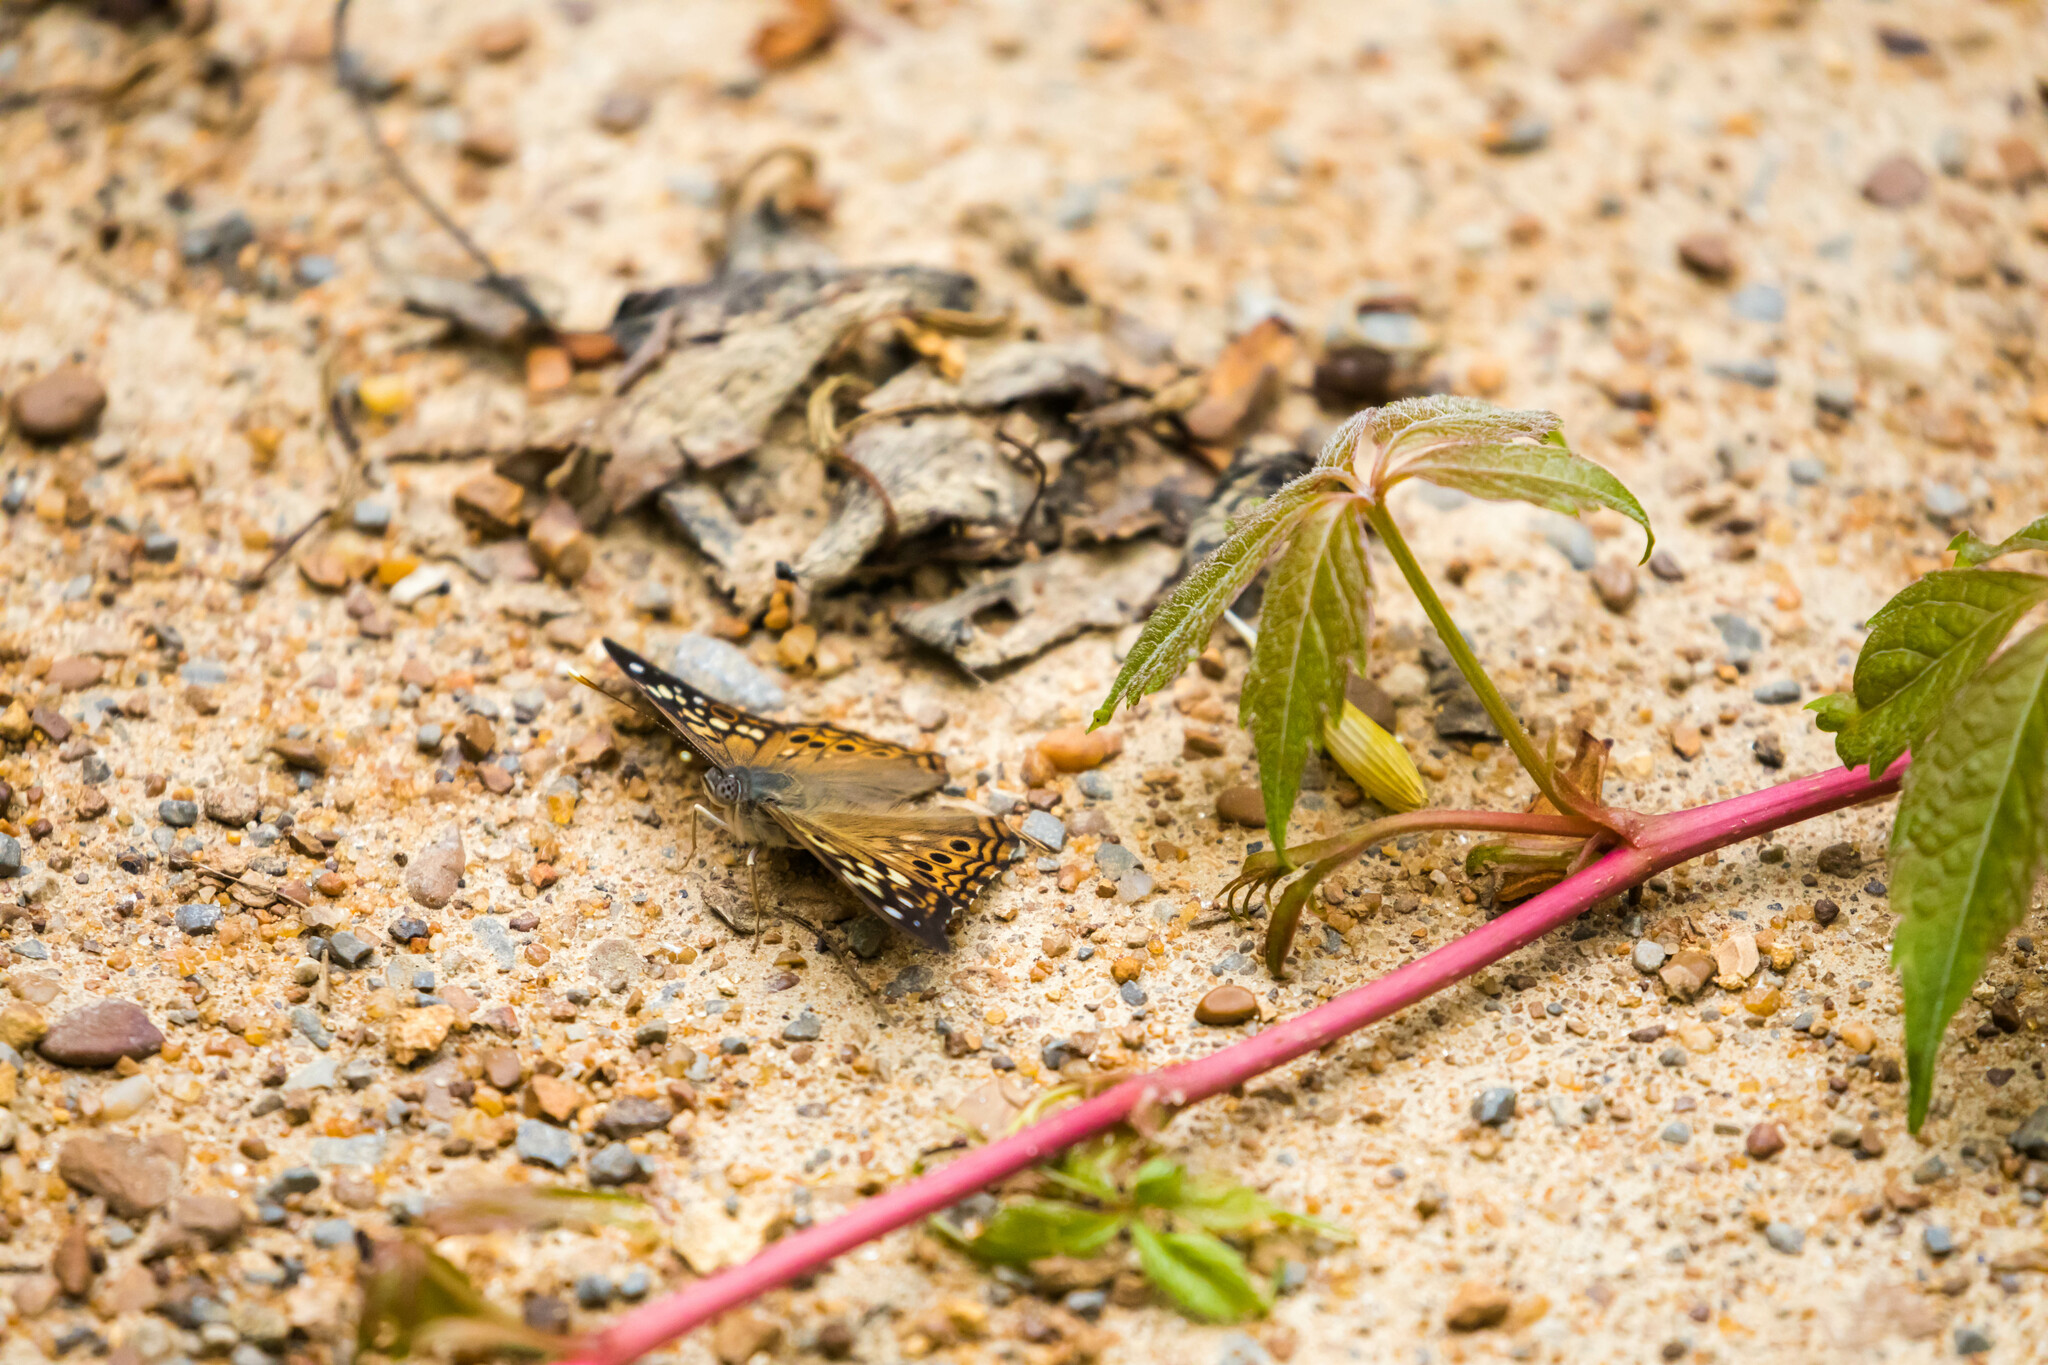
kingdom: Animalia
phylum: Arthropoda
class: Insecta
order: Lepidoptera
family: Nymphalidae
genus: Asterocampa
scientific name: Asterocampa celtis
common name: Hackberry emperor
